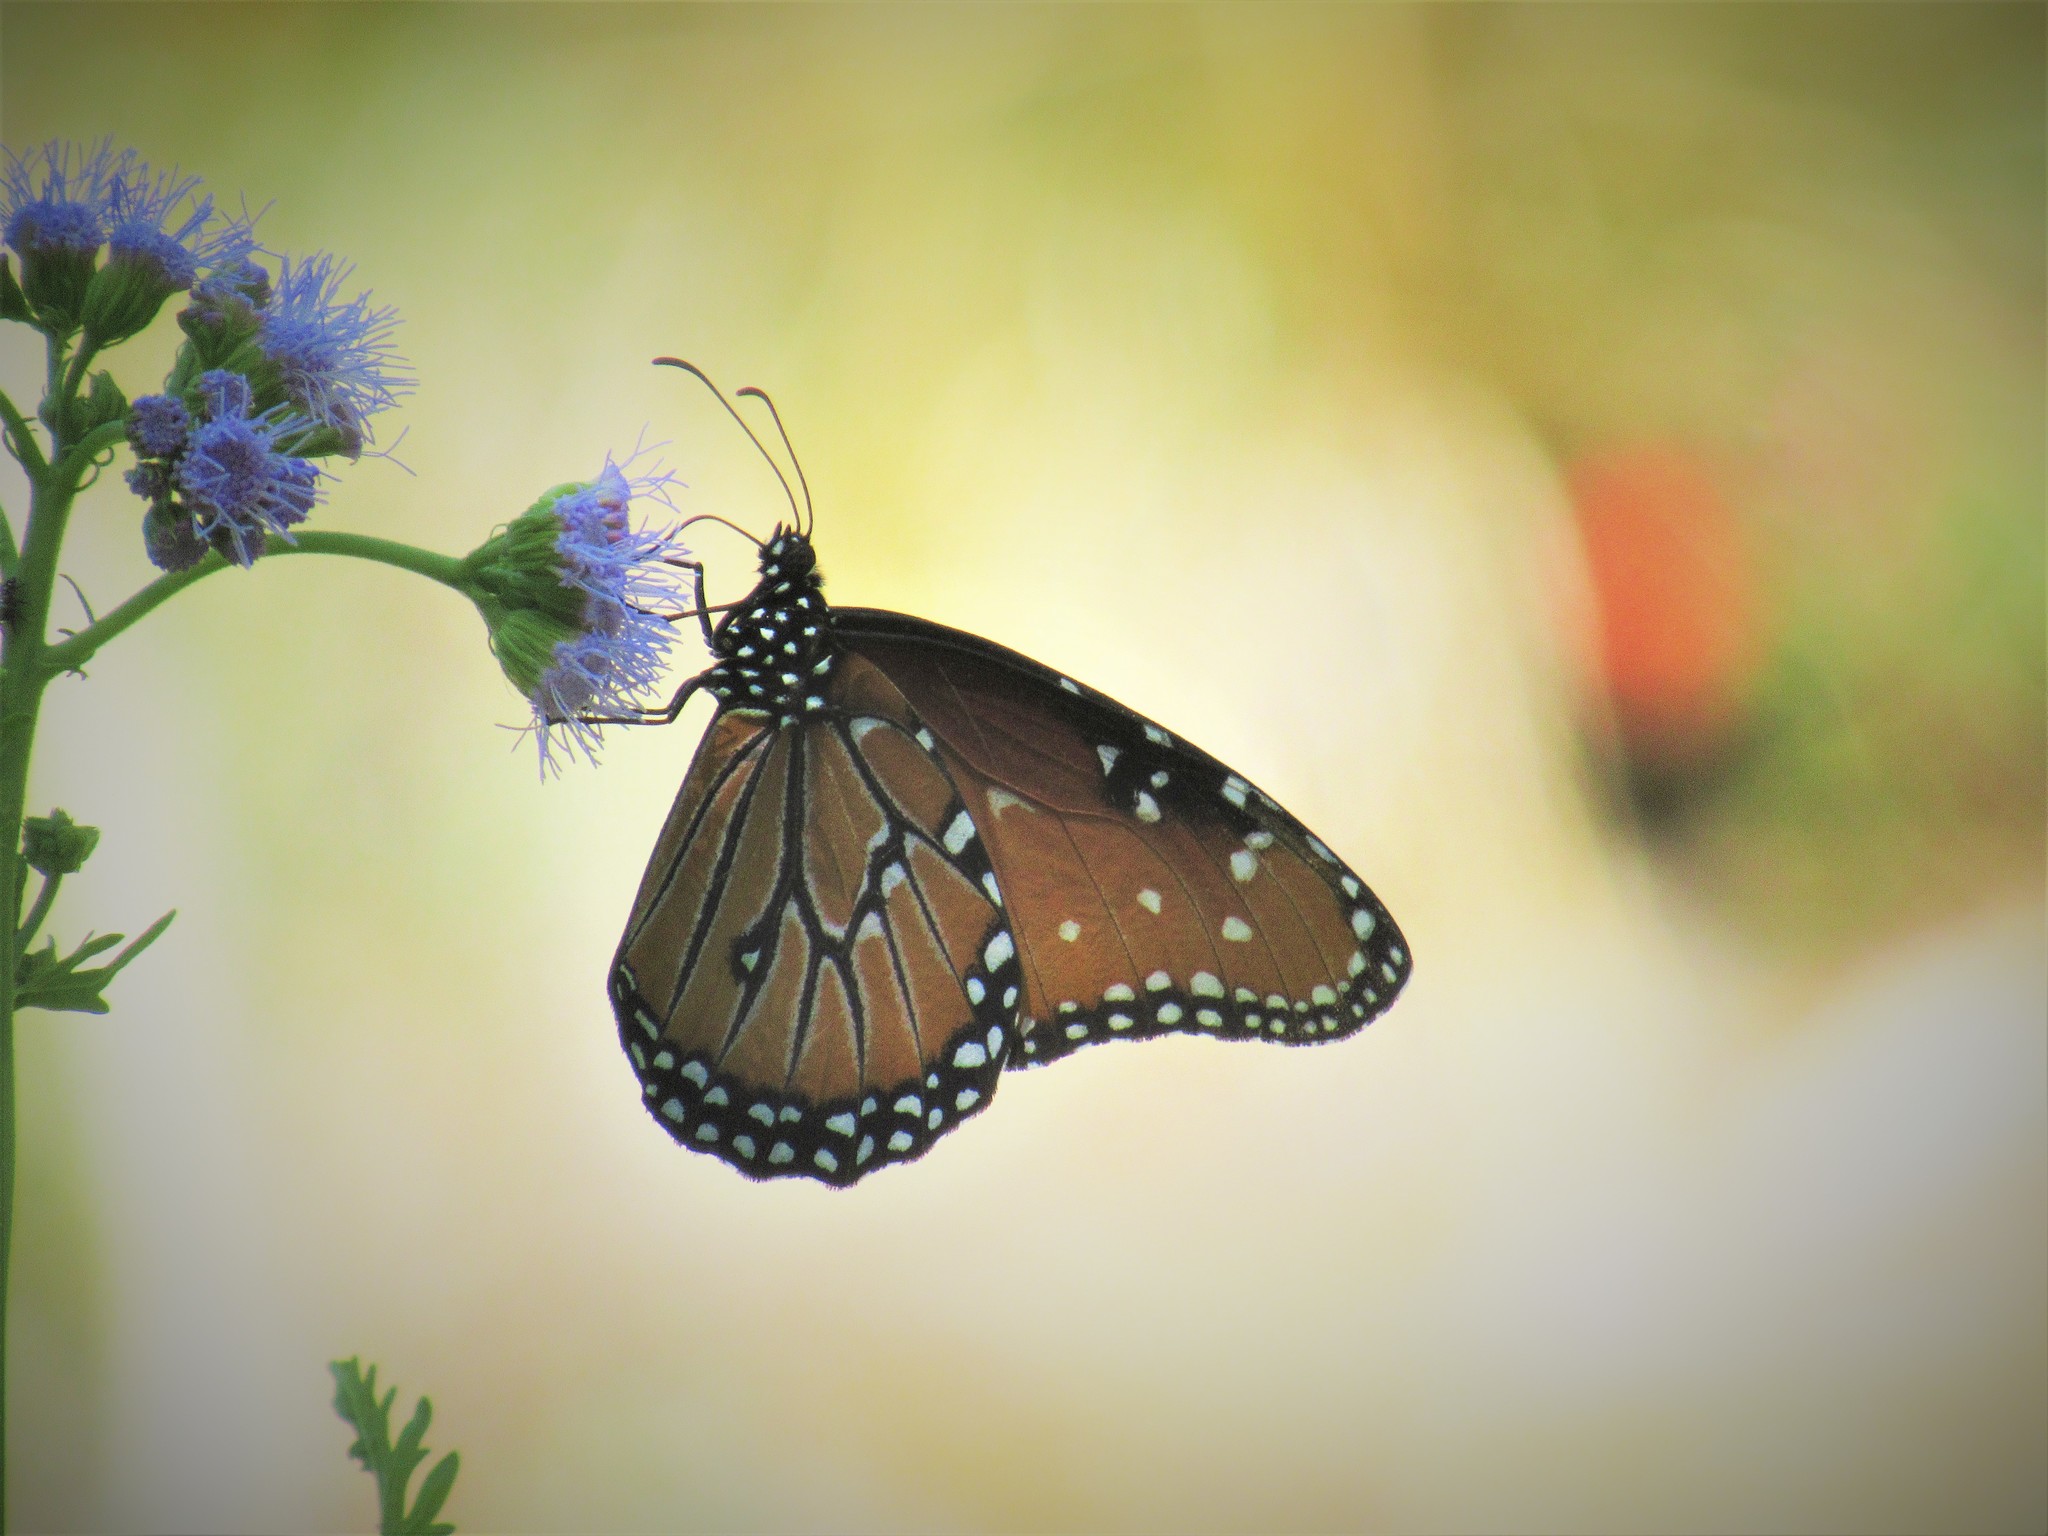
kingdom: Animalia
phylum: Arthropoda
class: Insecta
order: Lepidoptera
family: Nymphalidae
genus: Danaus
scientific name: Danaus gilippus
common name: Queen
